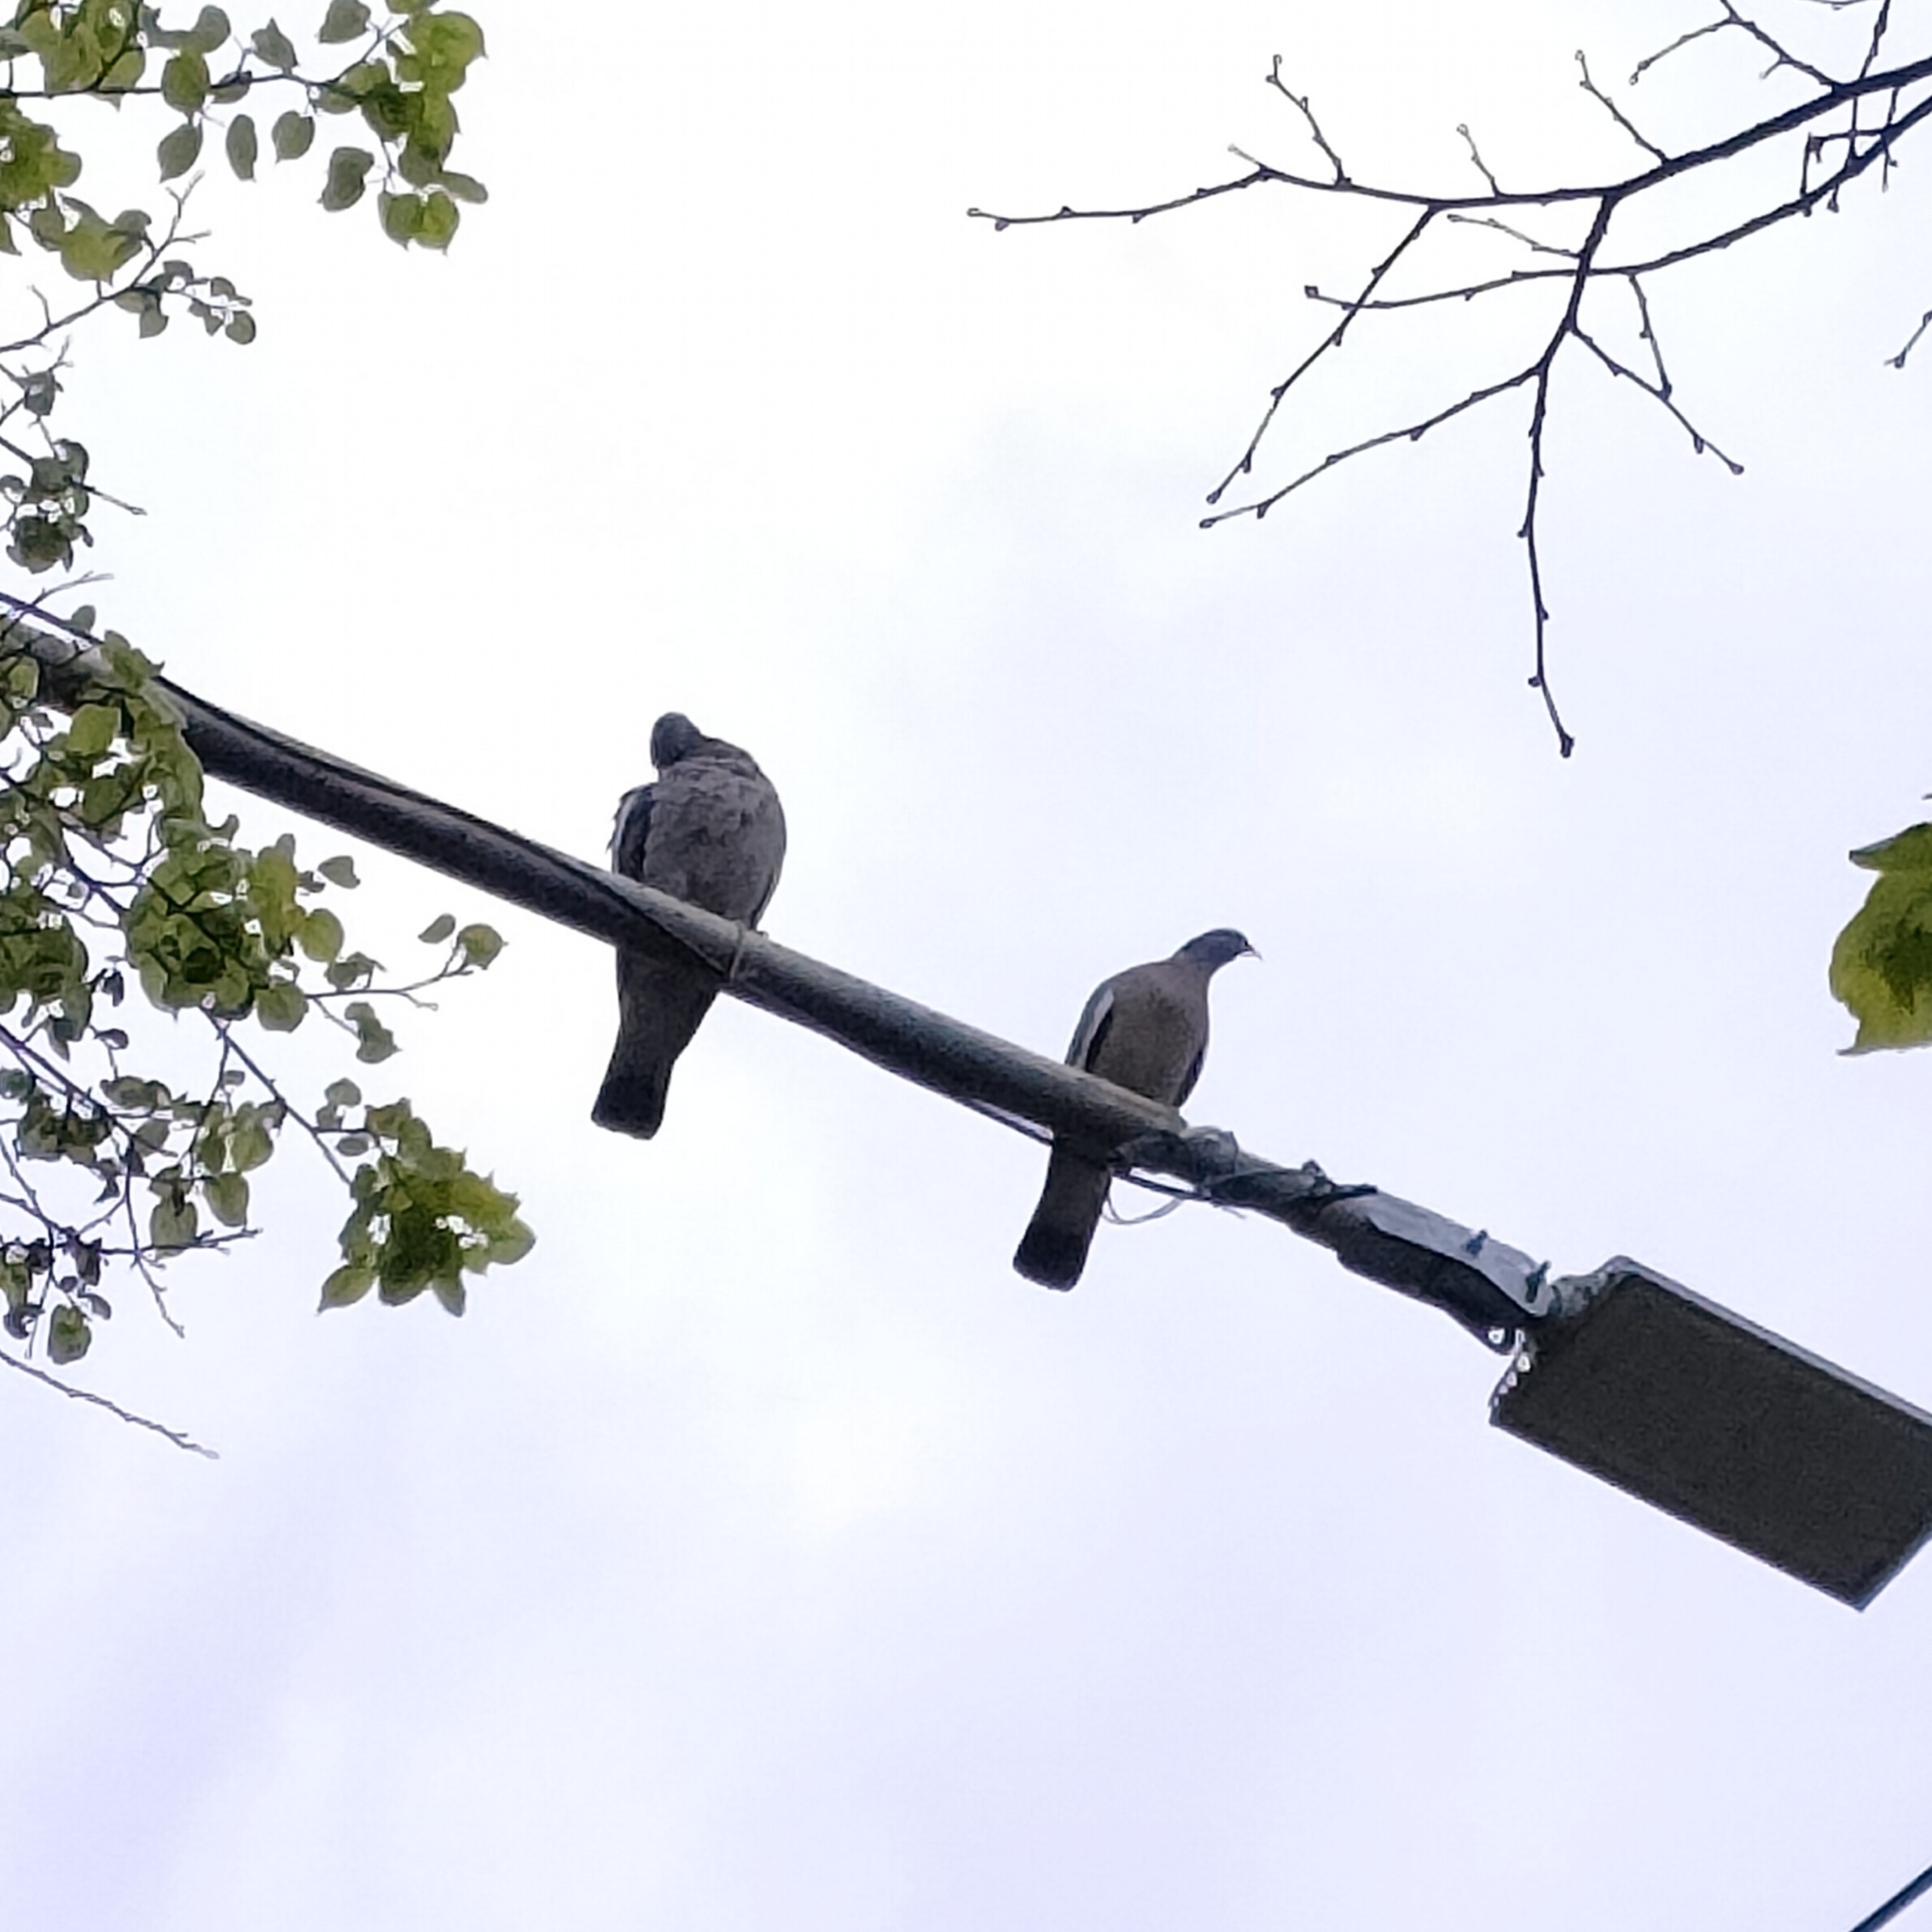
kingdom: Animalia
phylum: Chordata
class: Aves
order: Columbiformes
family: Columbidae
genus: Columba
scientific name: Columba palumbus
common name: Common wood pigeon
